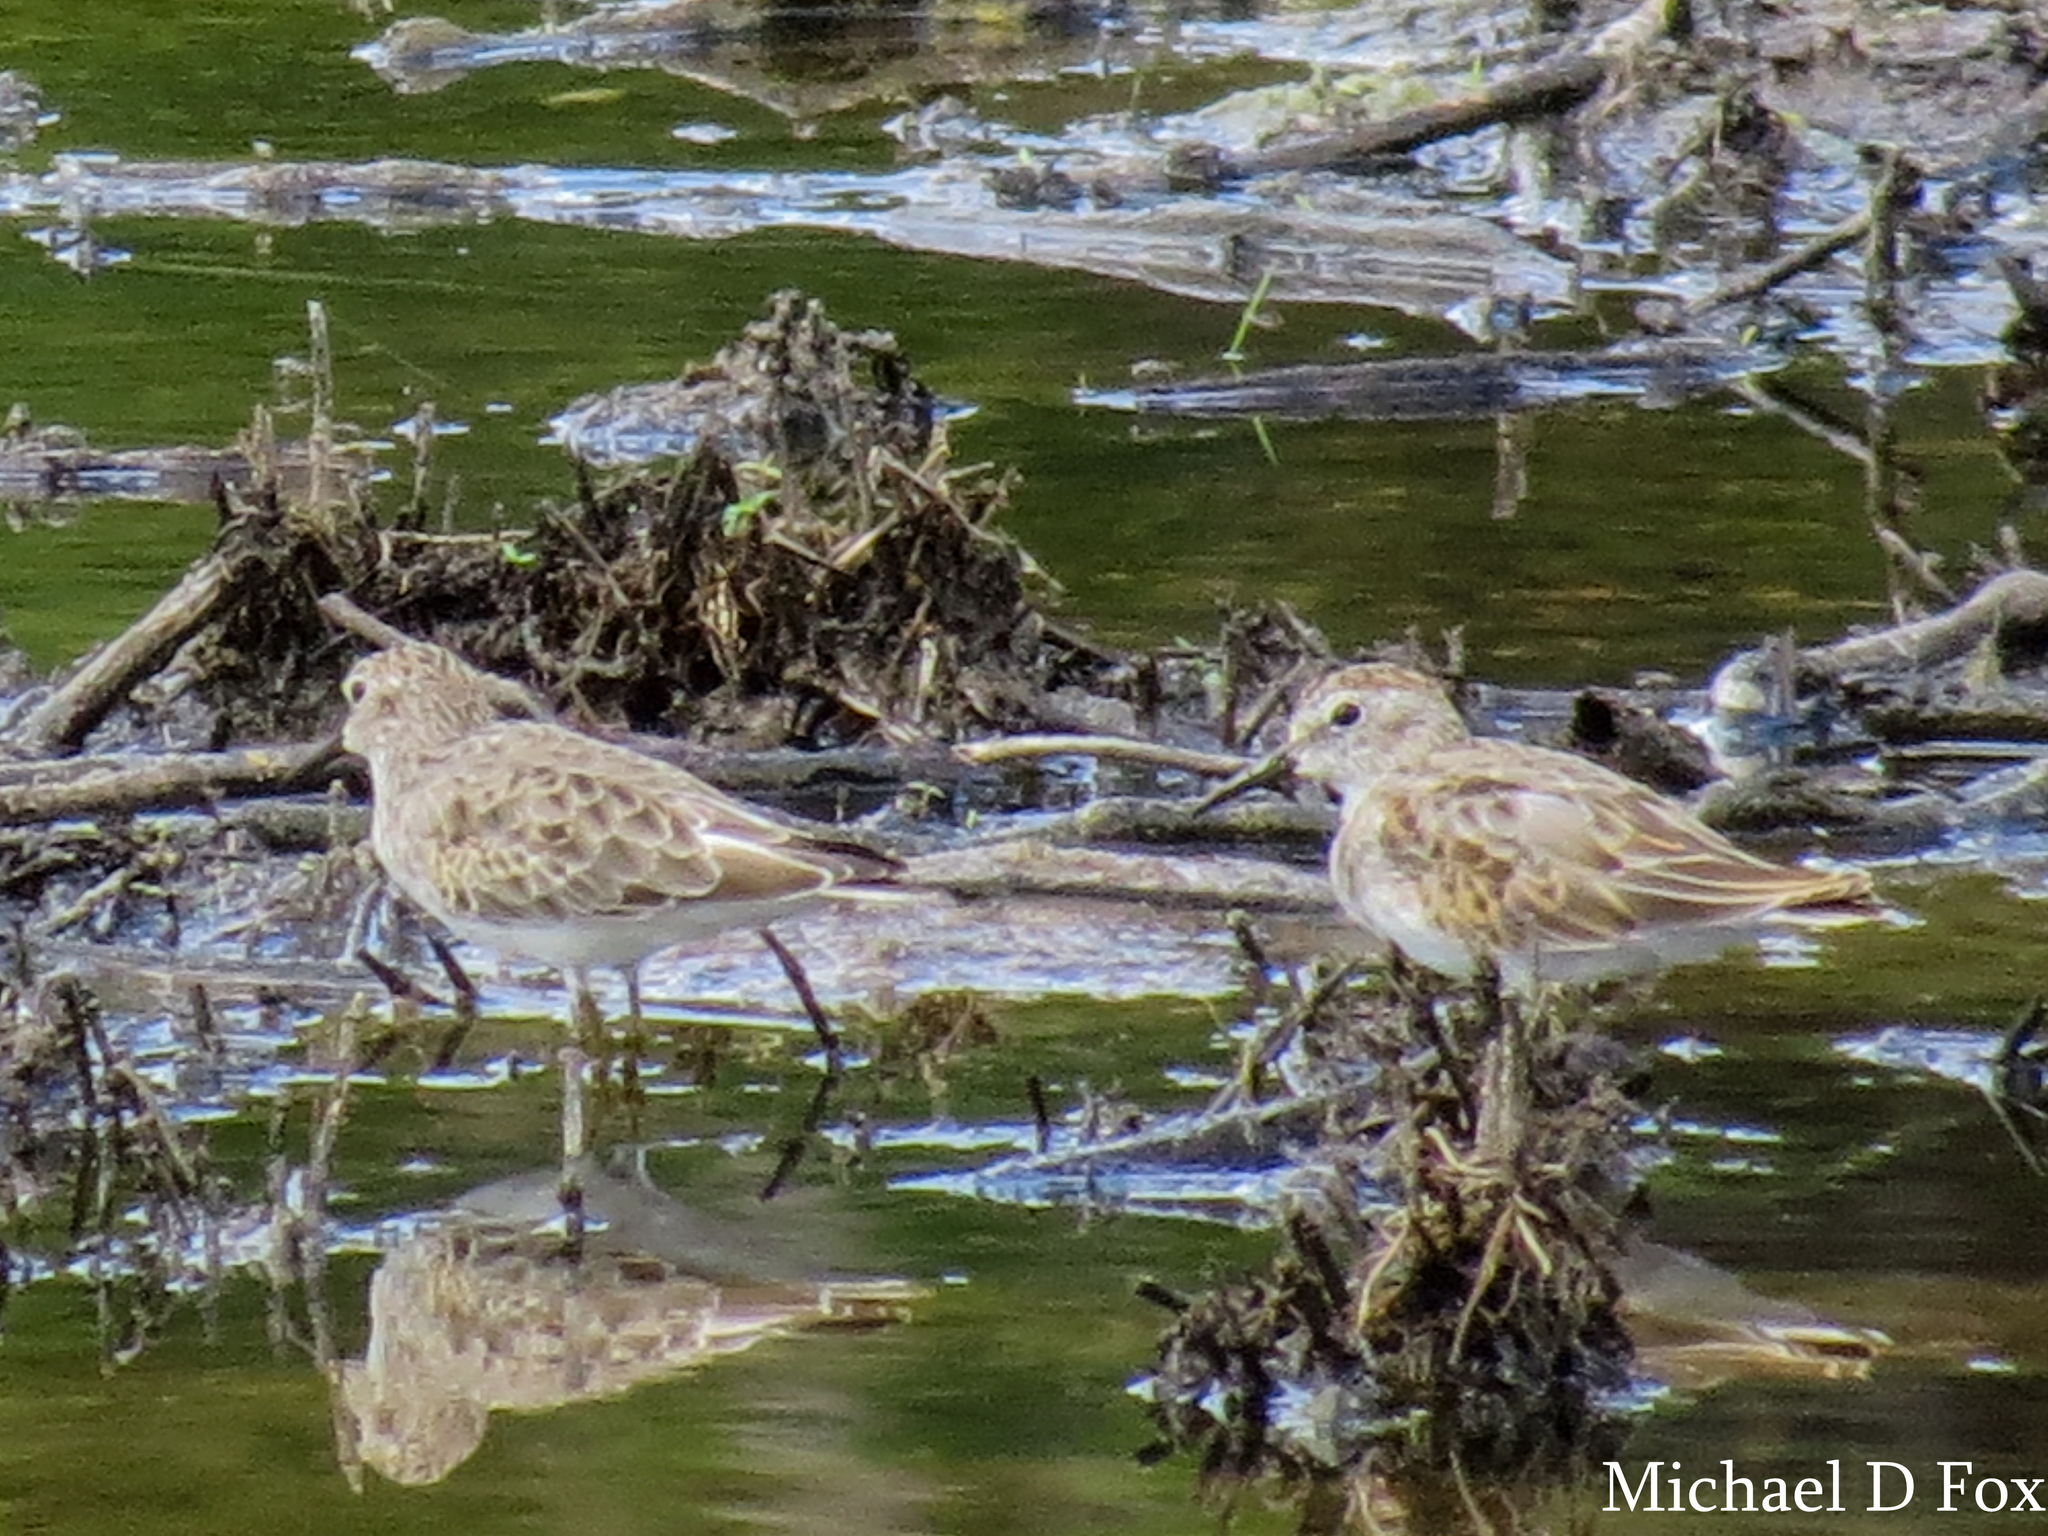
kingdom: Animalia
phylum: Chordata
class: Aves
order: Charadriiformes
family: Scolopacidae
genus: Calidris
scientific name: Calidris minutilla
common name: Least sandpiper
